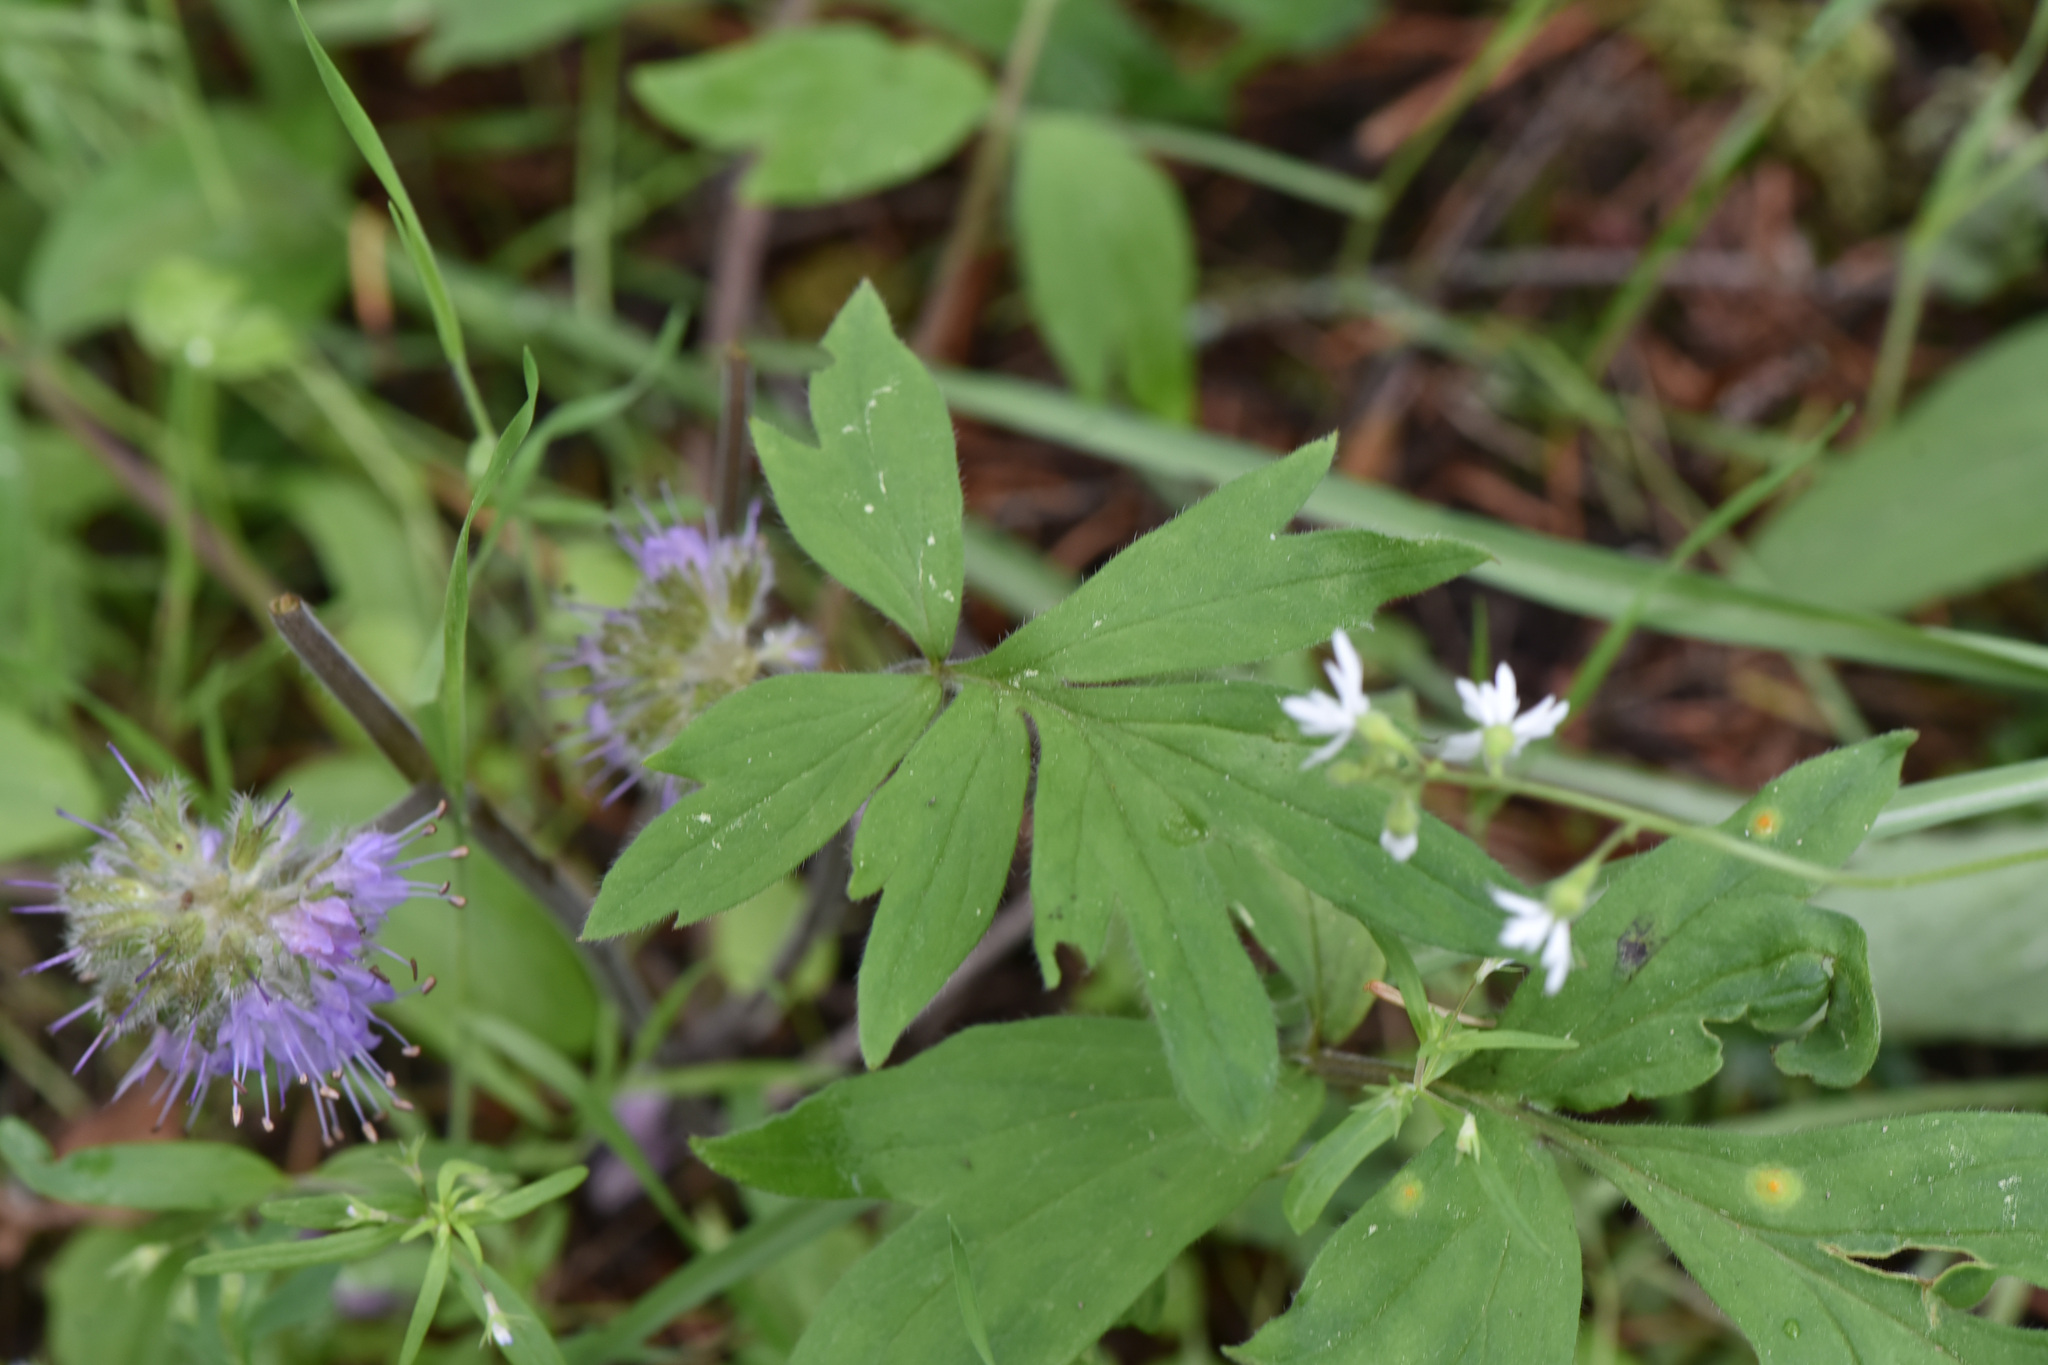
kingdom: Plantae
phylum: Tracheophyta
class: Magnoliopsida
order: Boraginales
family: Hydrophyllaceae
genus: Hydrophyllum
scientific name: Hydrophyllum capitatum
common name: Woollen-breeches
